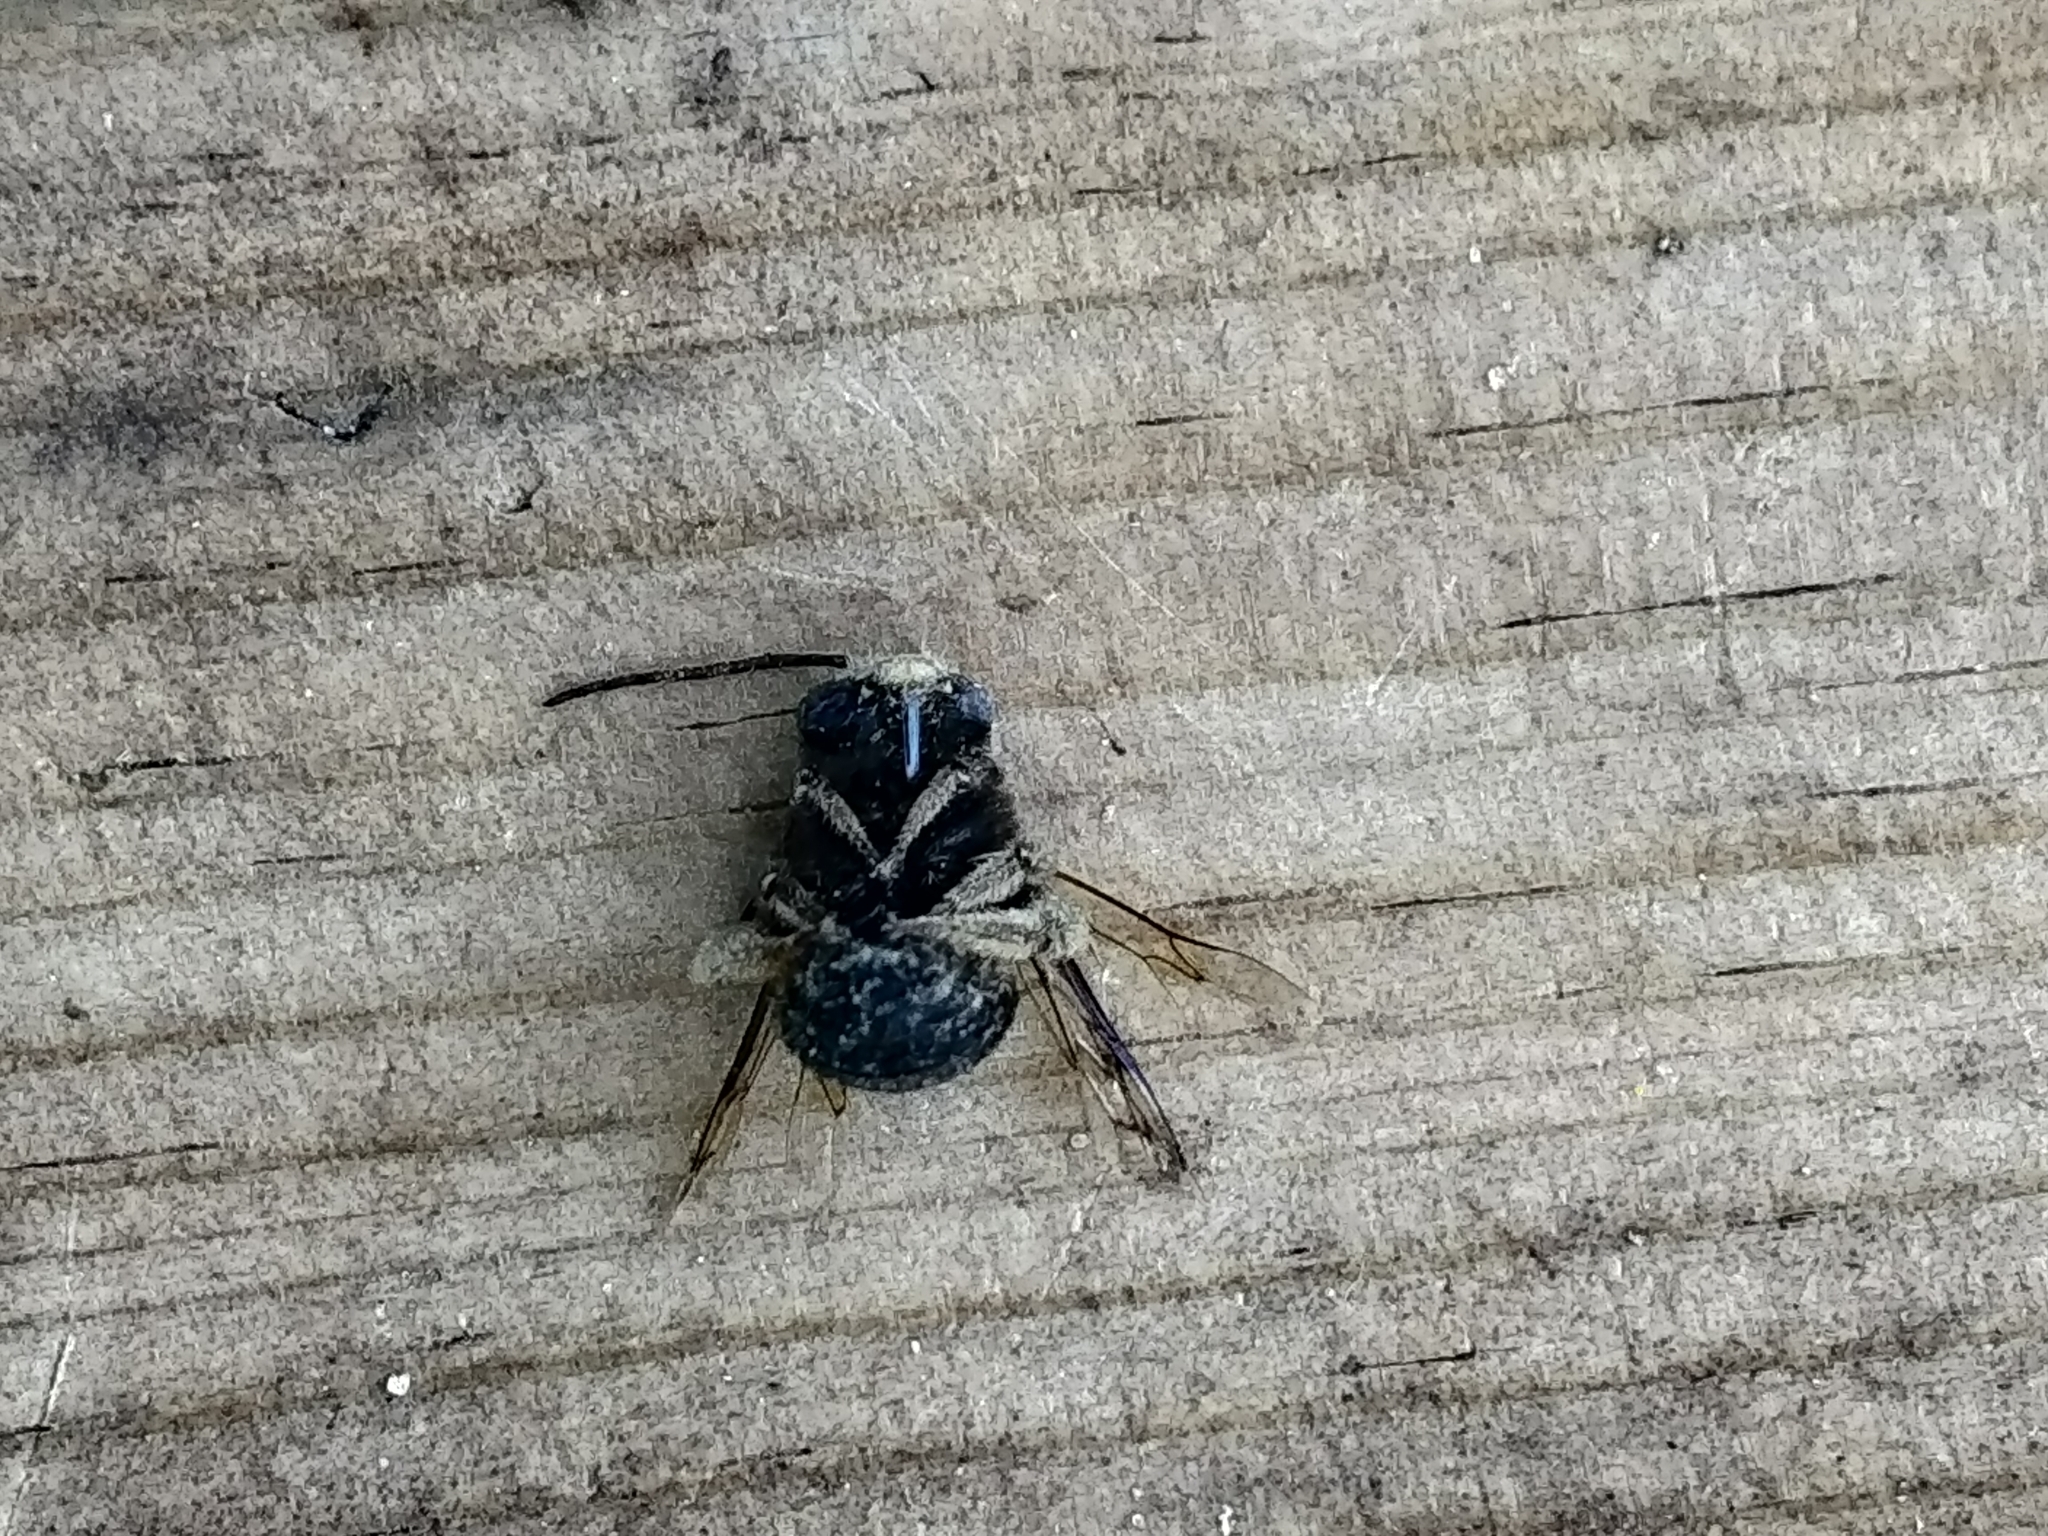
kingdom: Animalia
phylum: Arthropoda
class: Insecta
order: Hymenoptera
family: Apidae
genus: Melissodes
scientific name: Melissodes bimaculatus
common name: Two-spotted long-horned bee
